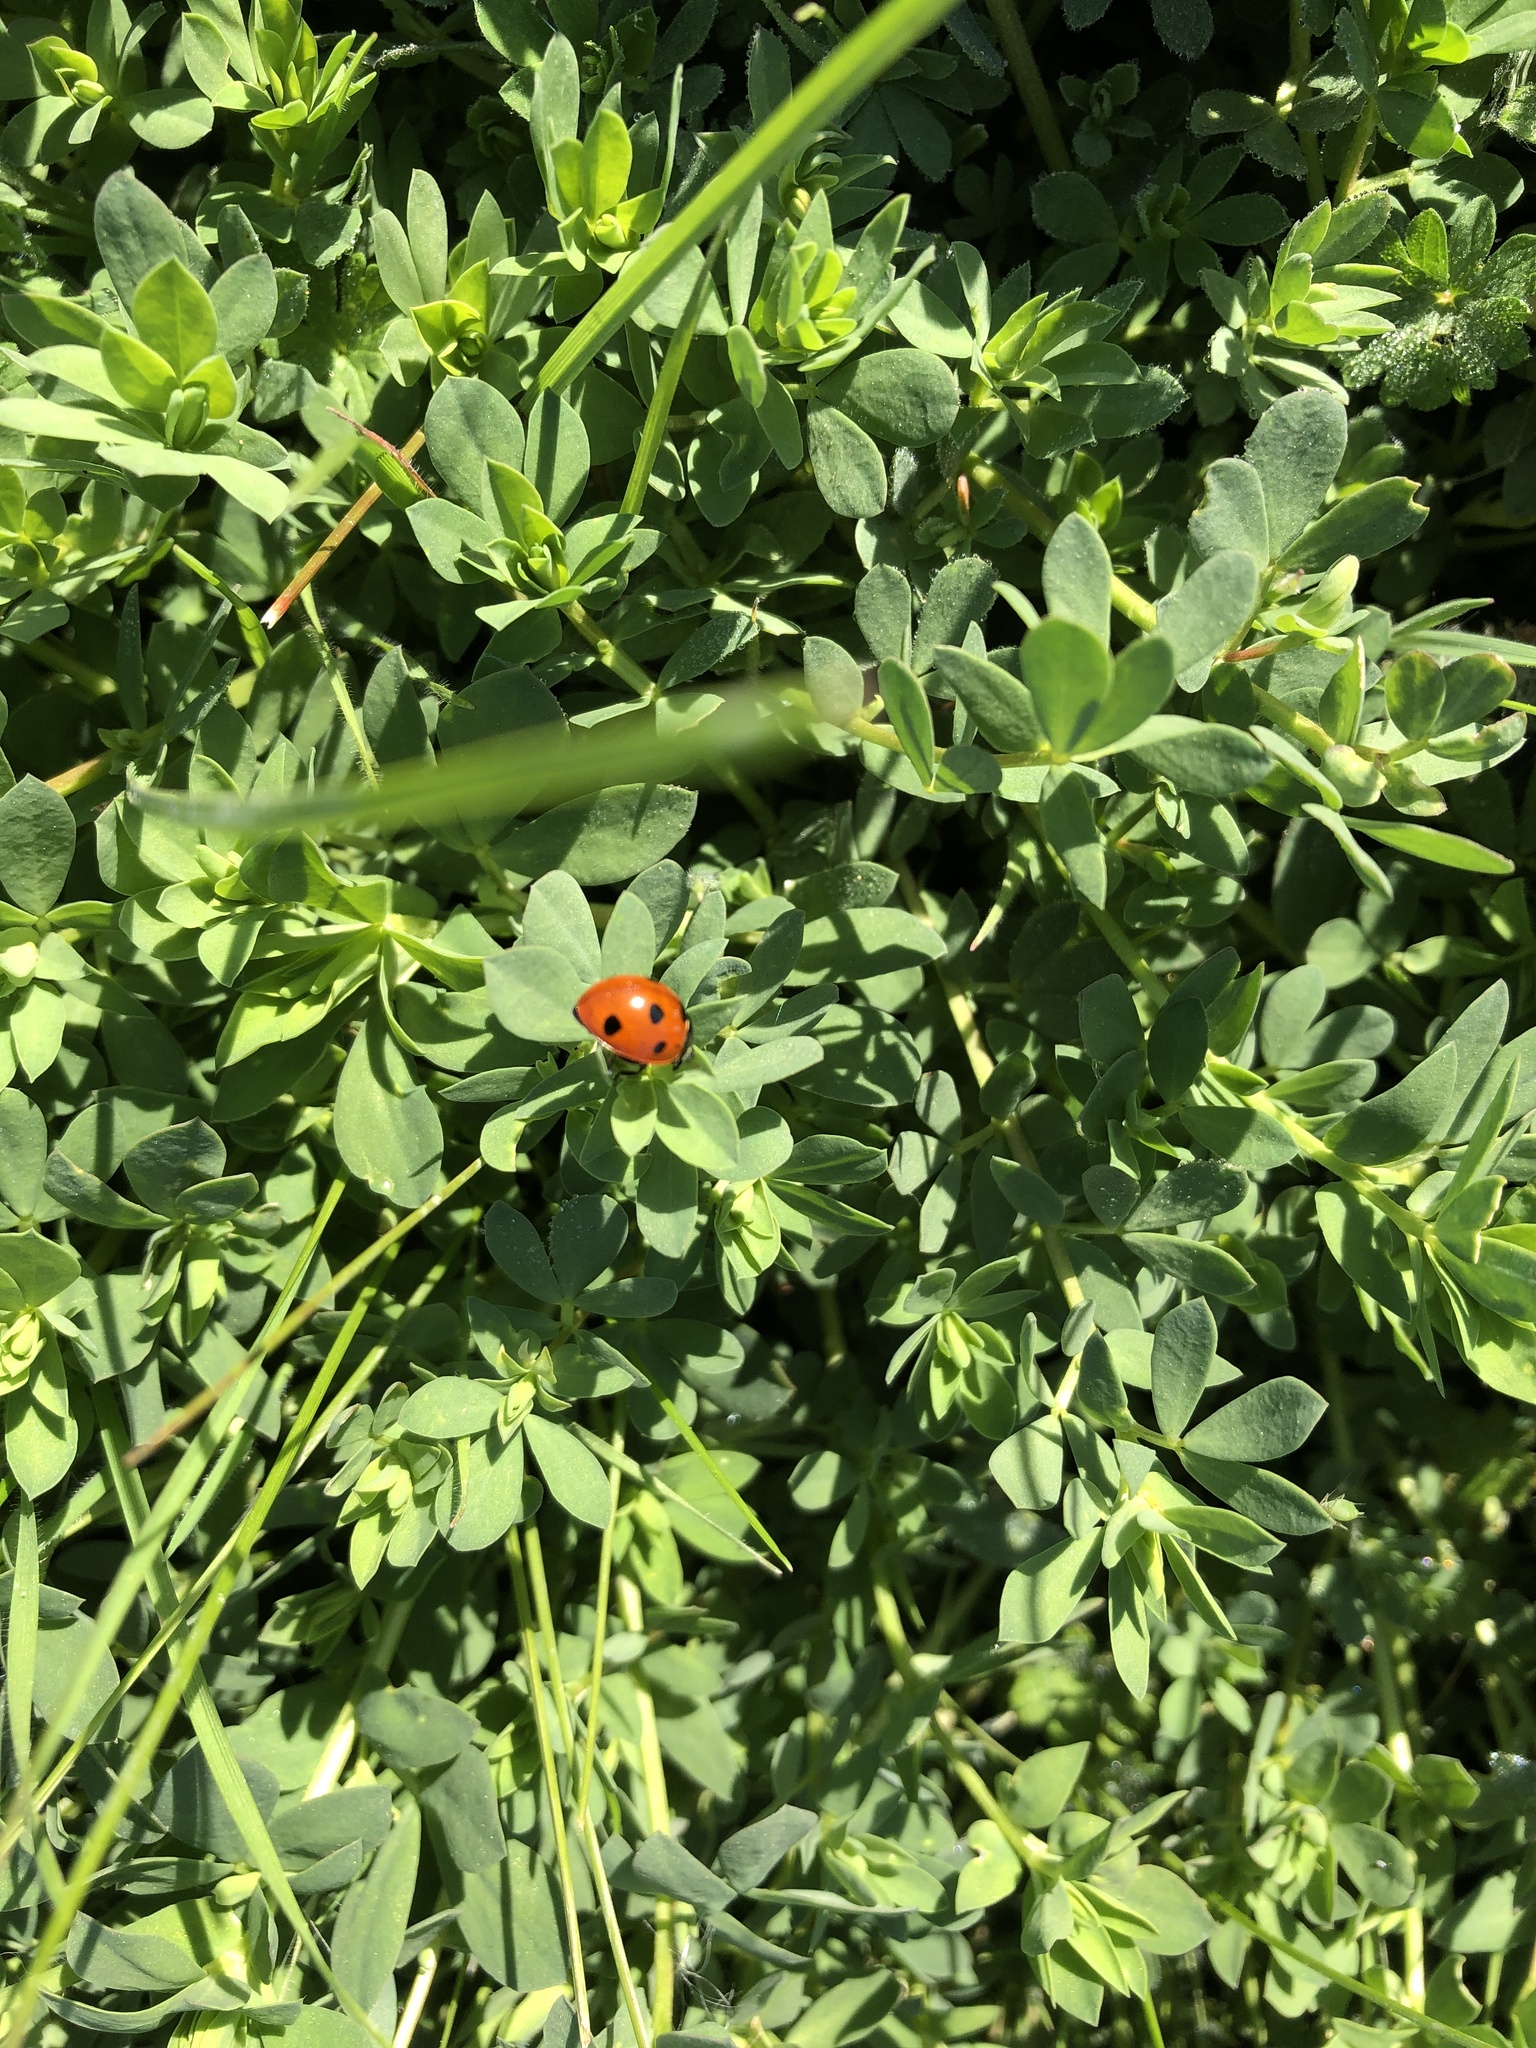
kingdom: Animalia
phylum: Arthropoda
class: Insecta
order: Coleoptera
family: Coccinellidae
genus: Coccinella
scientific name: Coccinella septempunctata
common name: Sevenspotted lady beetle
